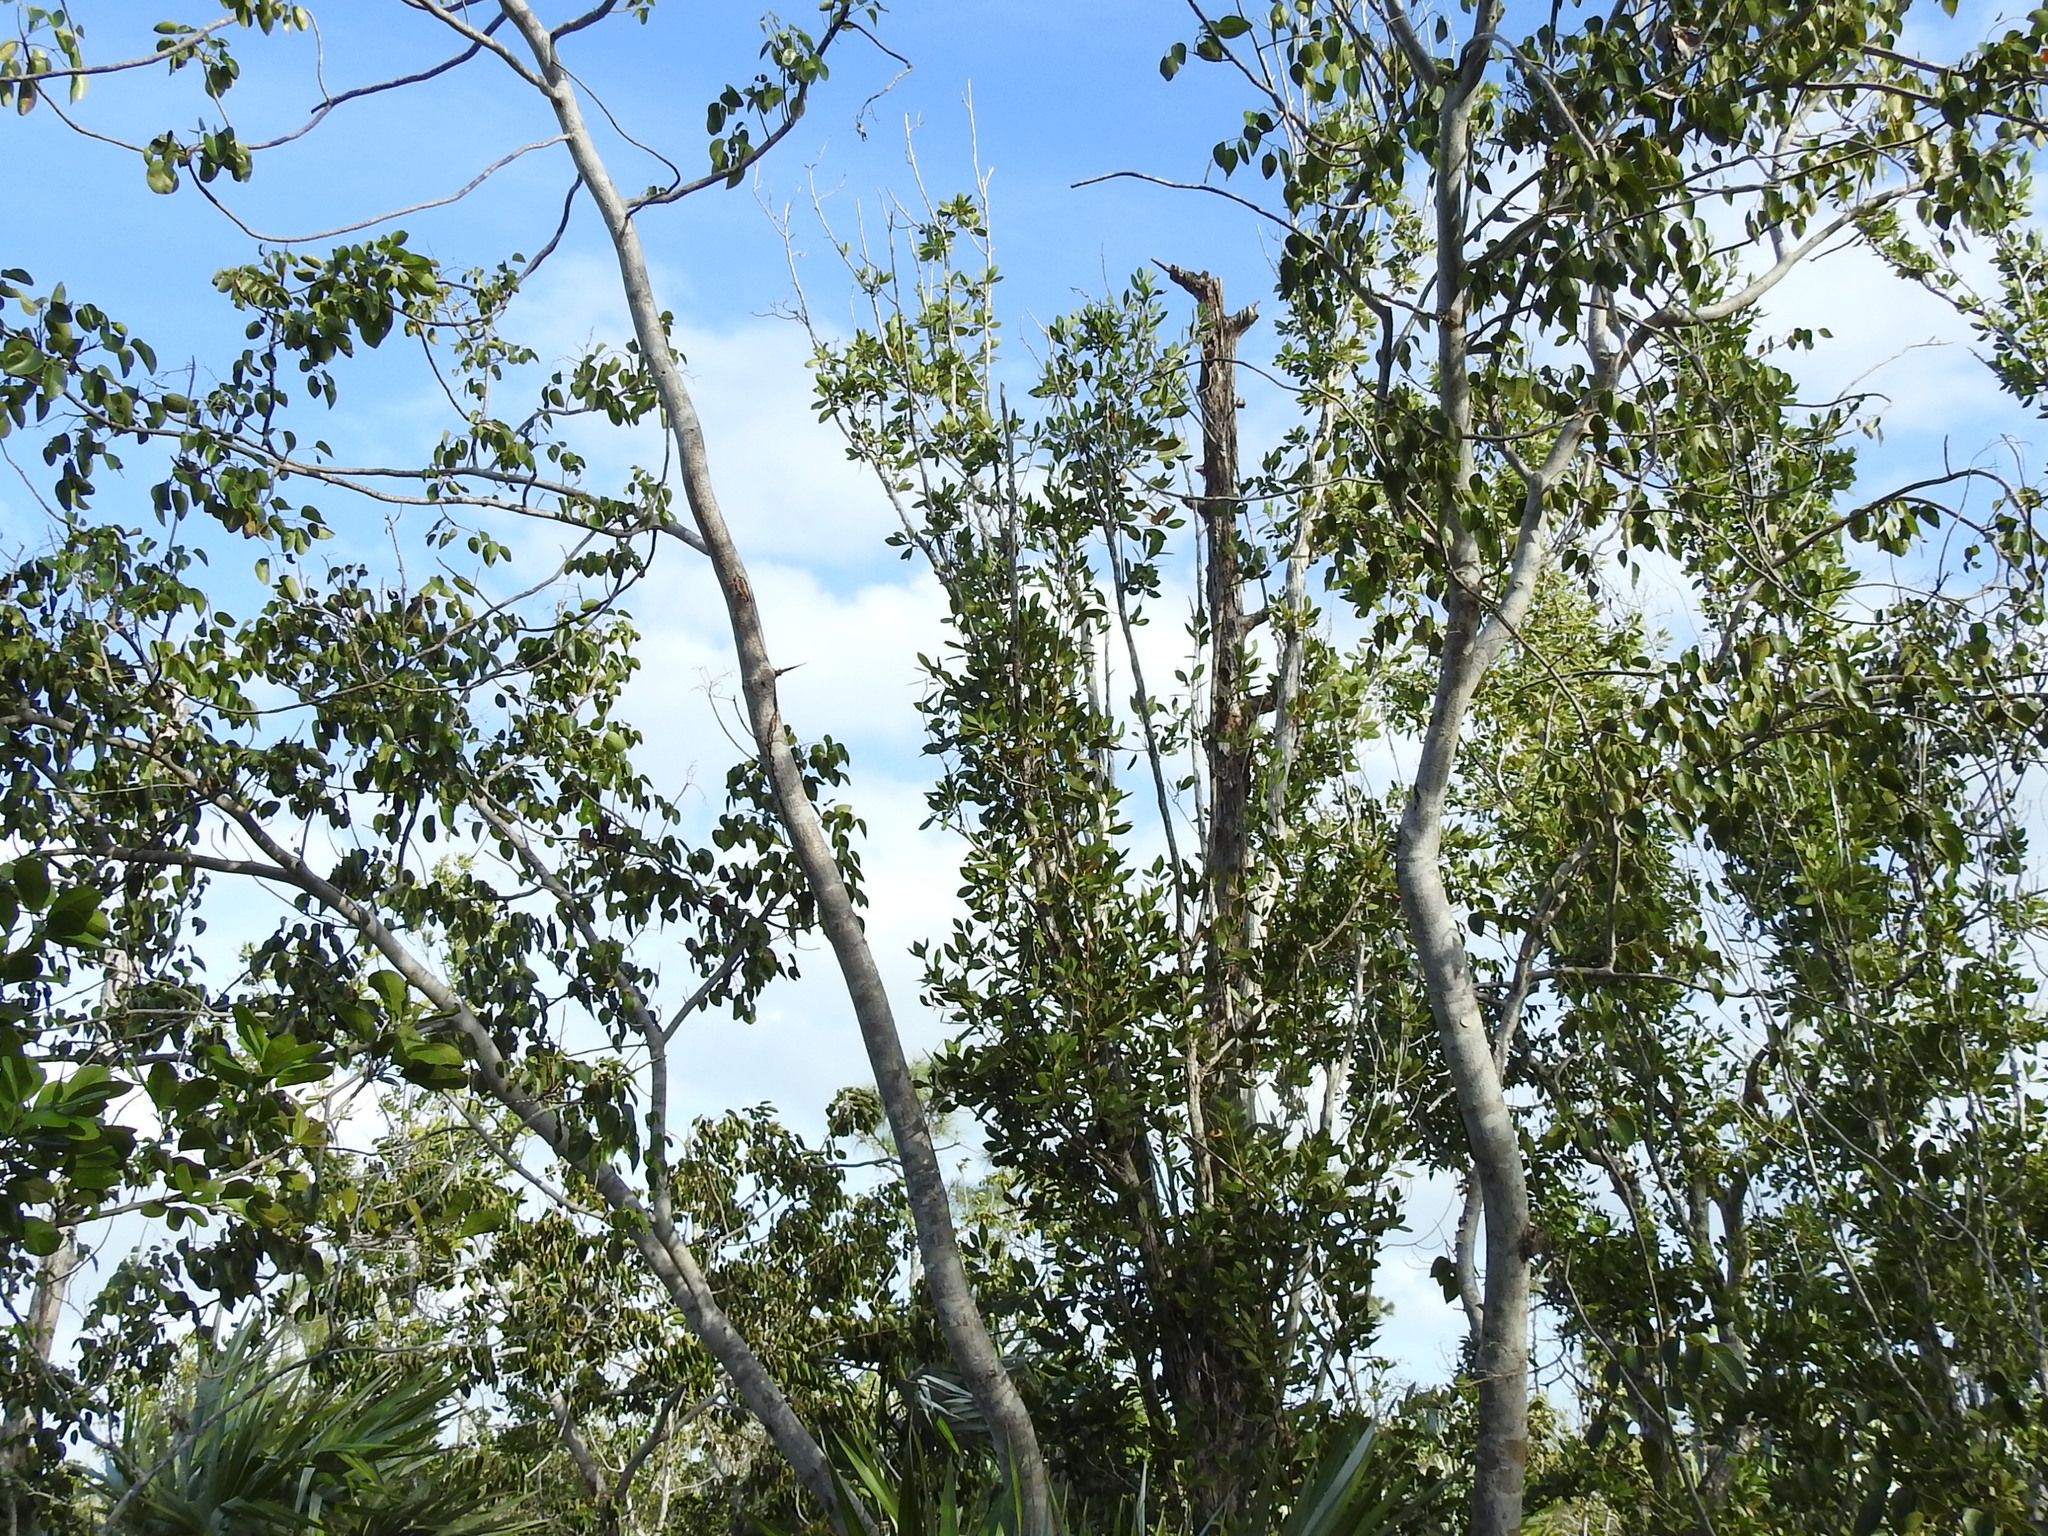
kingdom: Plantae
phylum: Tracheophyta
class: Magnoliopsida
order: Sapindales
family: Anacardiaceae
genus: Metopium
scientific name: Metopium toxiferum
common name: Florida poisontree
